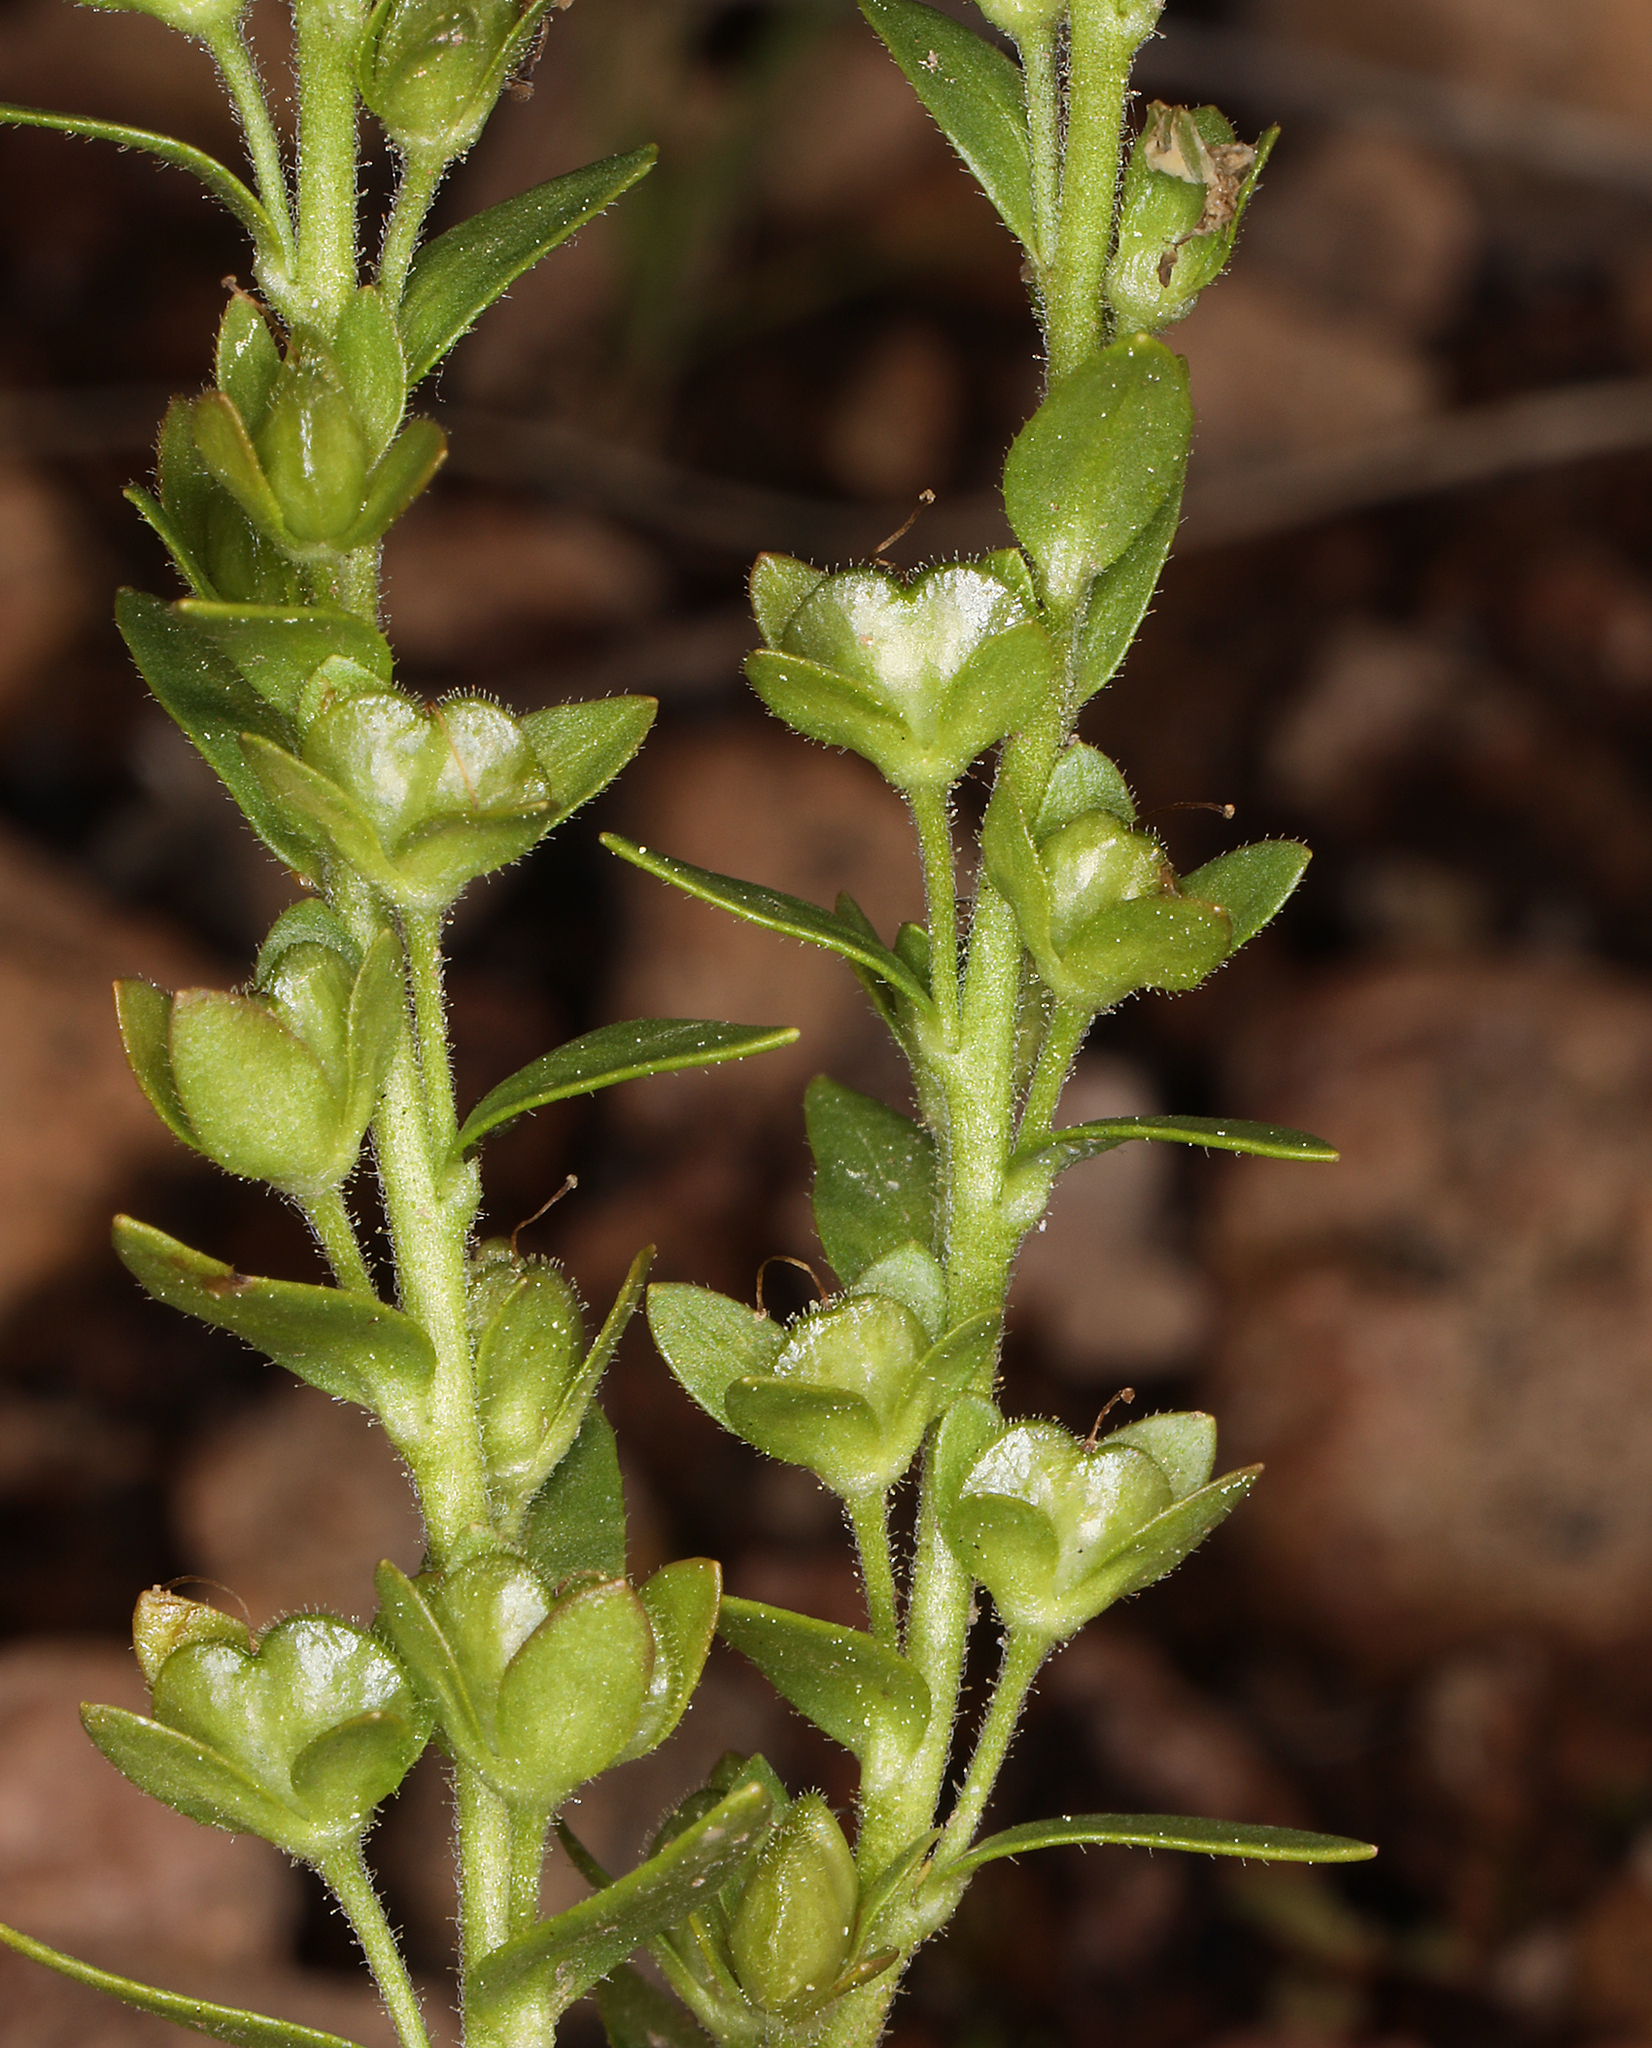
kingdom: Plantae
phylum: Tracheophyta
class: Magnoliopsida
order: Lamiales
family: Plantaginaceae
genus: Veronica
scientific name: Veronica serpyllifolia
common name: Thyme-leaved speedwell
